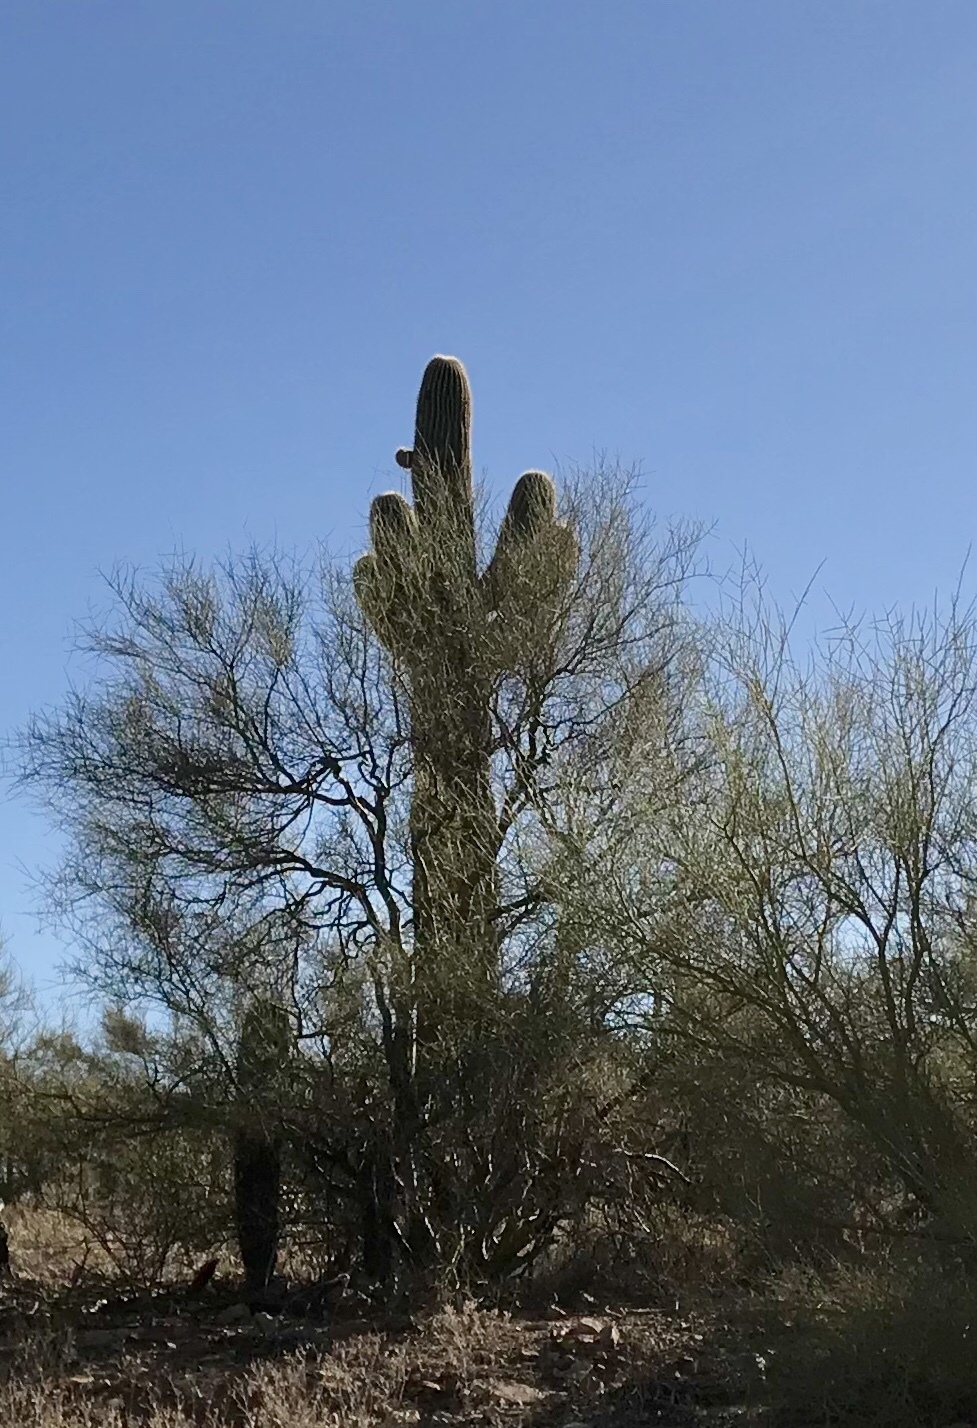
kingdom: Plantae
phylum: Tracheophyta
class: Magnoliopsida
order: Caryophyllales
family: Cactaceae
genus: Carnegiea
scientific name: Carnegiea gigantea
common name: Saguaro
